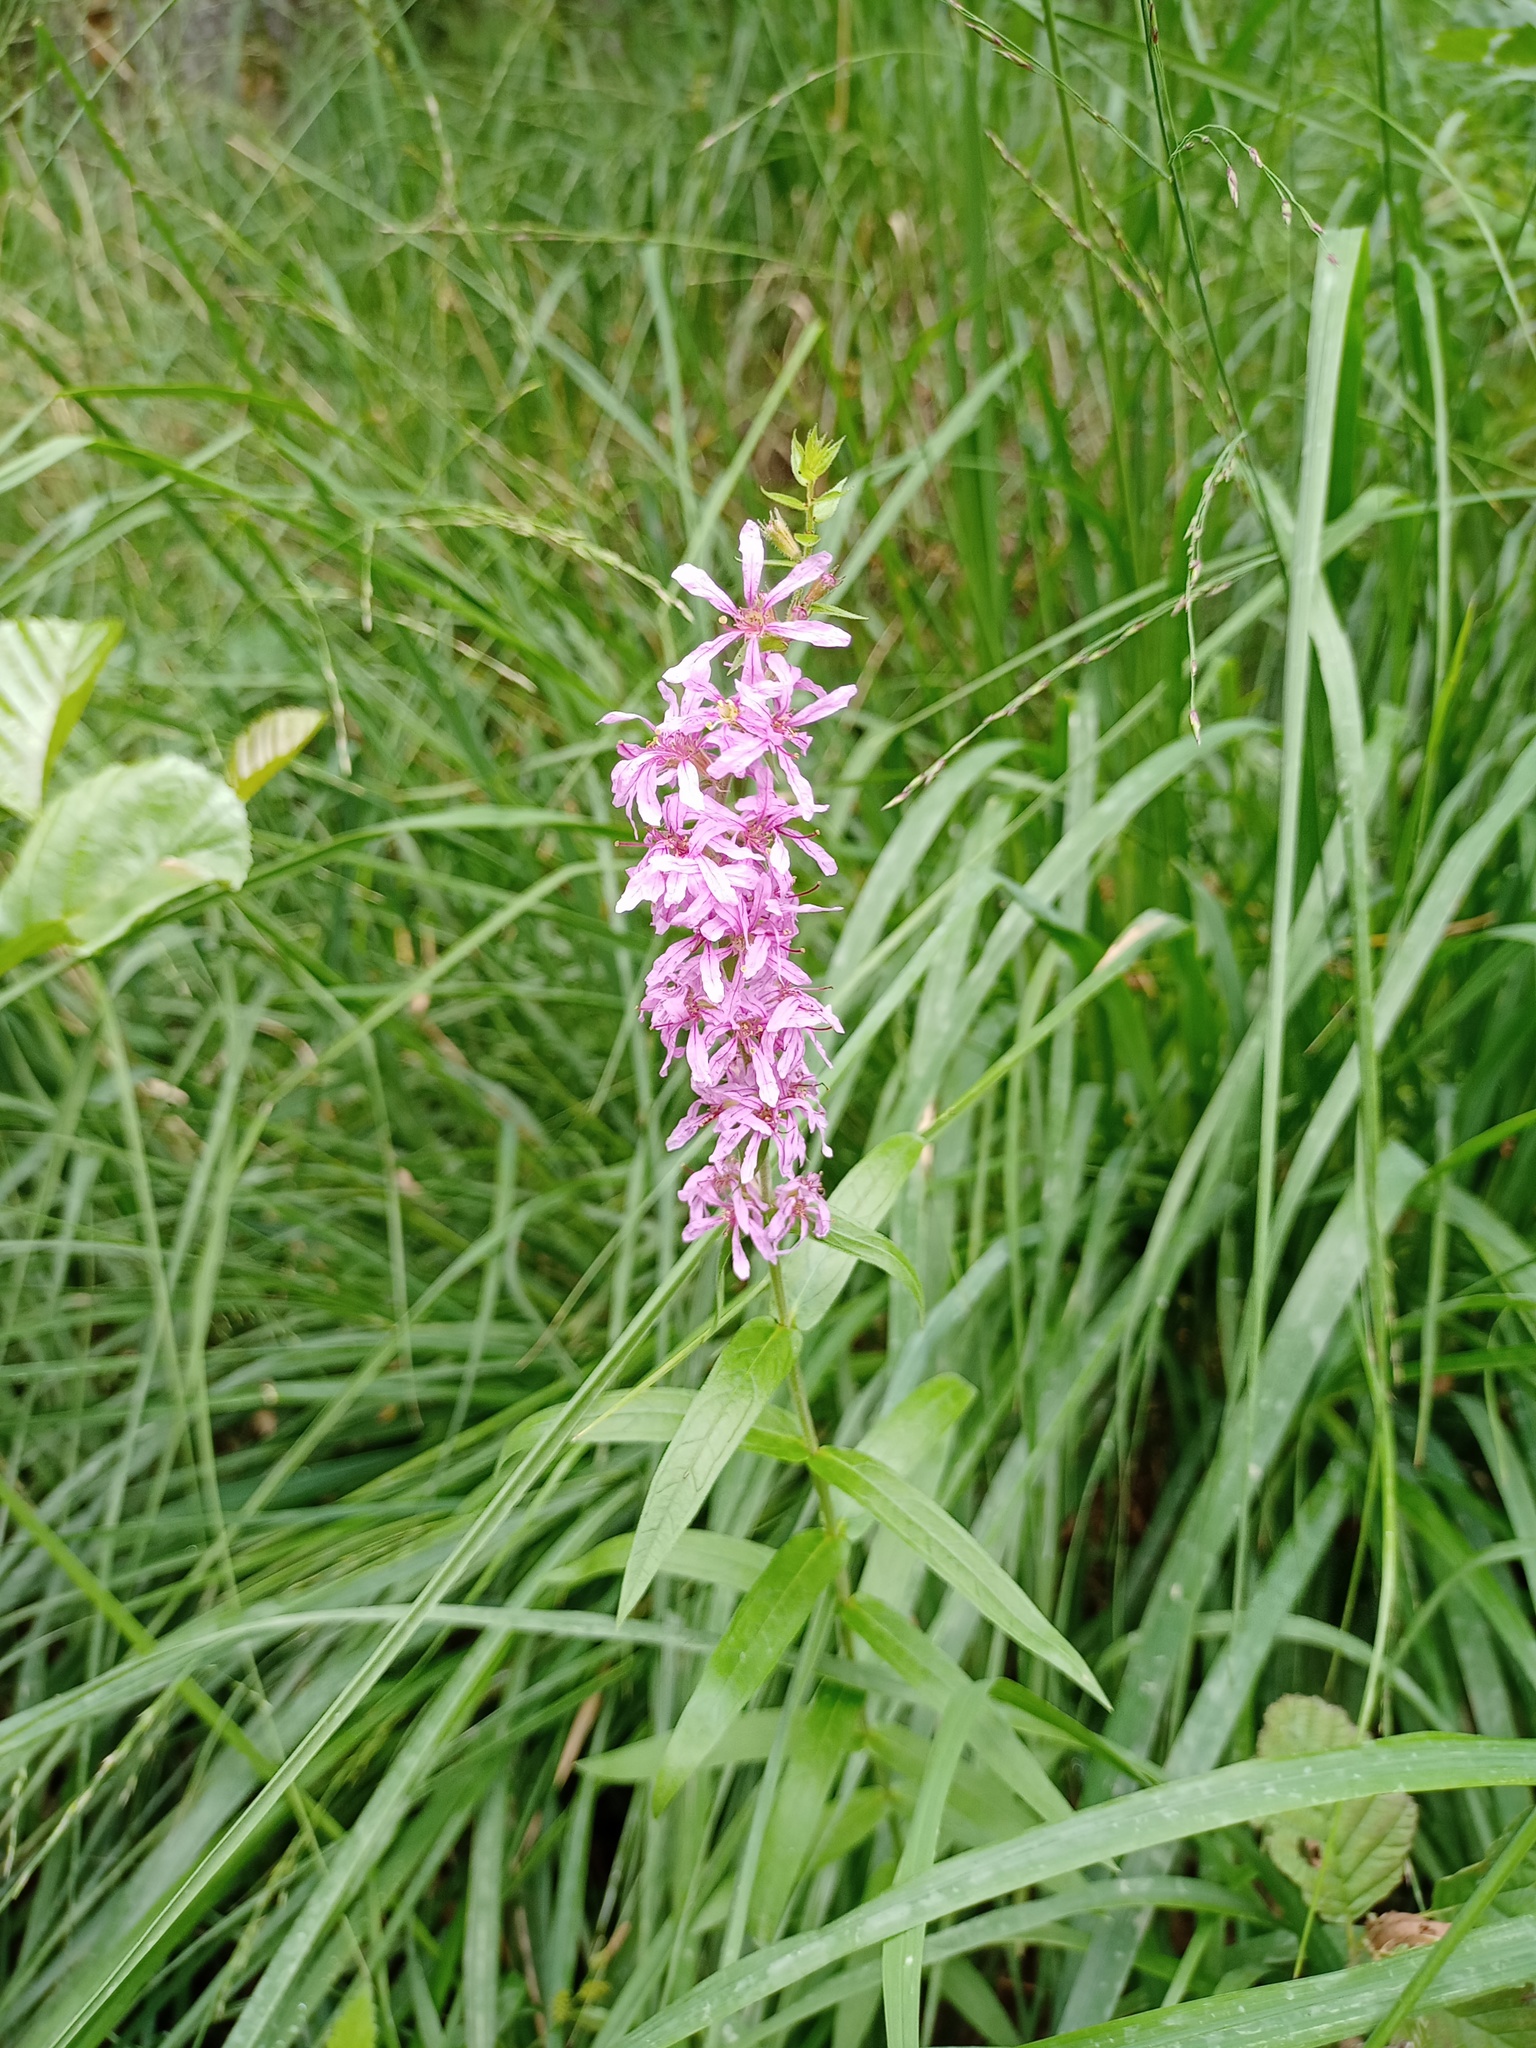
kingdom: Plantae
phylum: Tracheophyta
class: Magnoliopsida
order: Myrtales
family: Lythraceae
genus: Lythrum
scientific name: Lythrum salicaria
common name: Purple loosestrife
